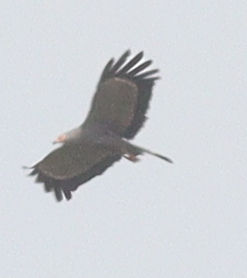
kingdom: Animalia
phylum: Chordata
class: Aves
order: Accipitriformes
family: Accipitridae
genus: Polyboroides
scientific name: Polyboroides typus
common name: African harrier-hawk
